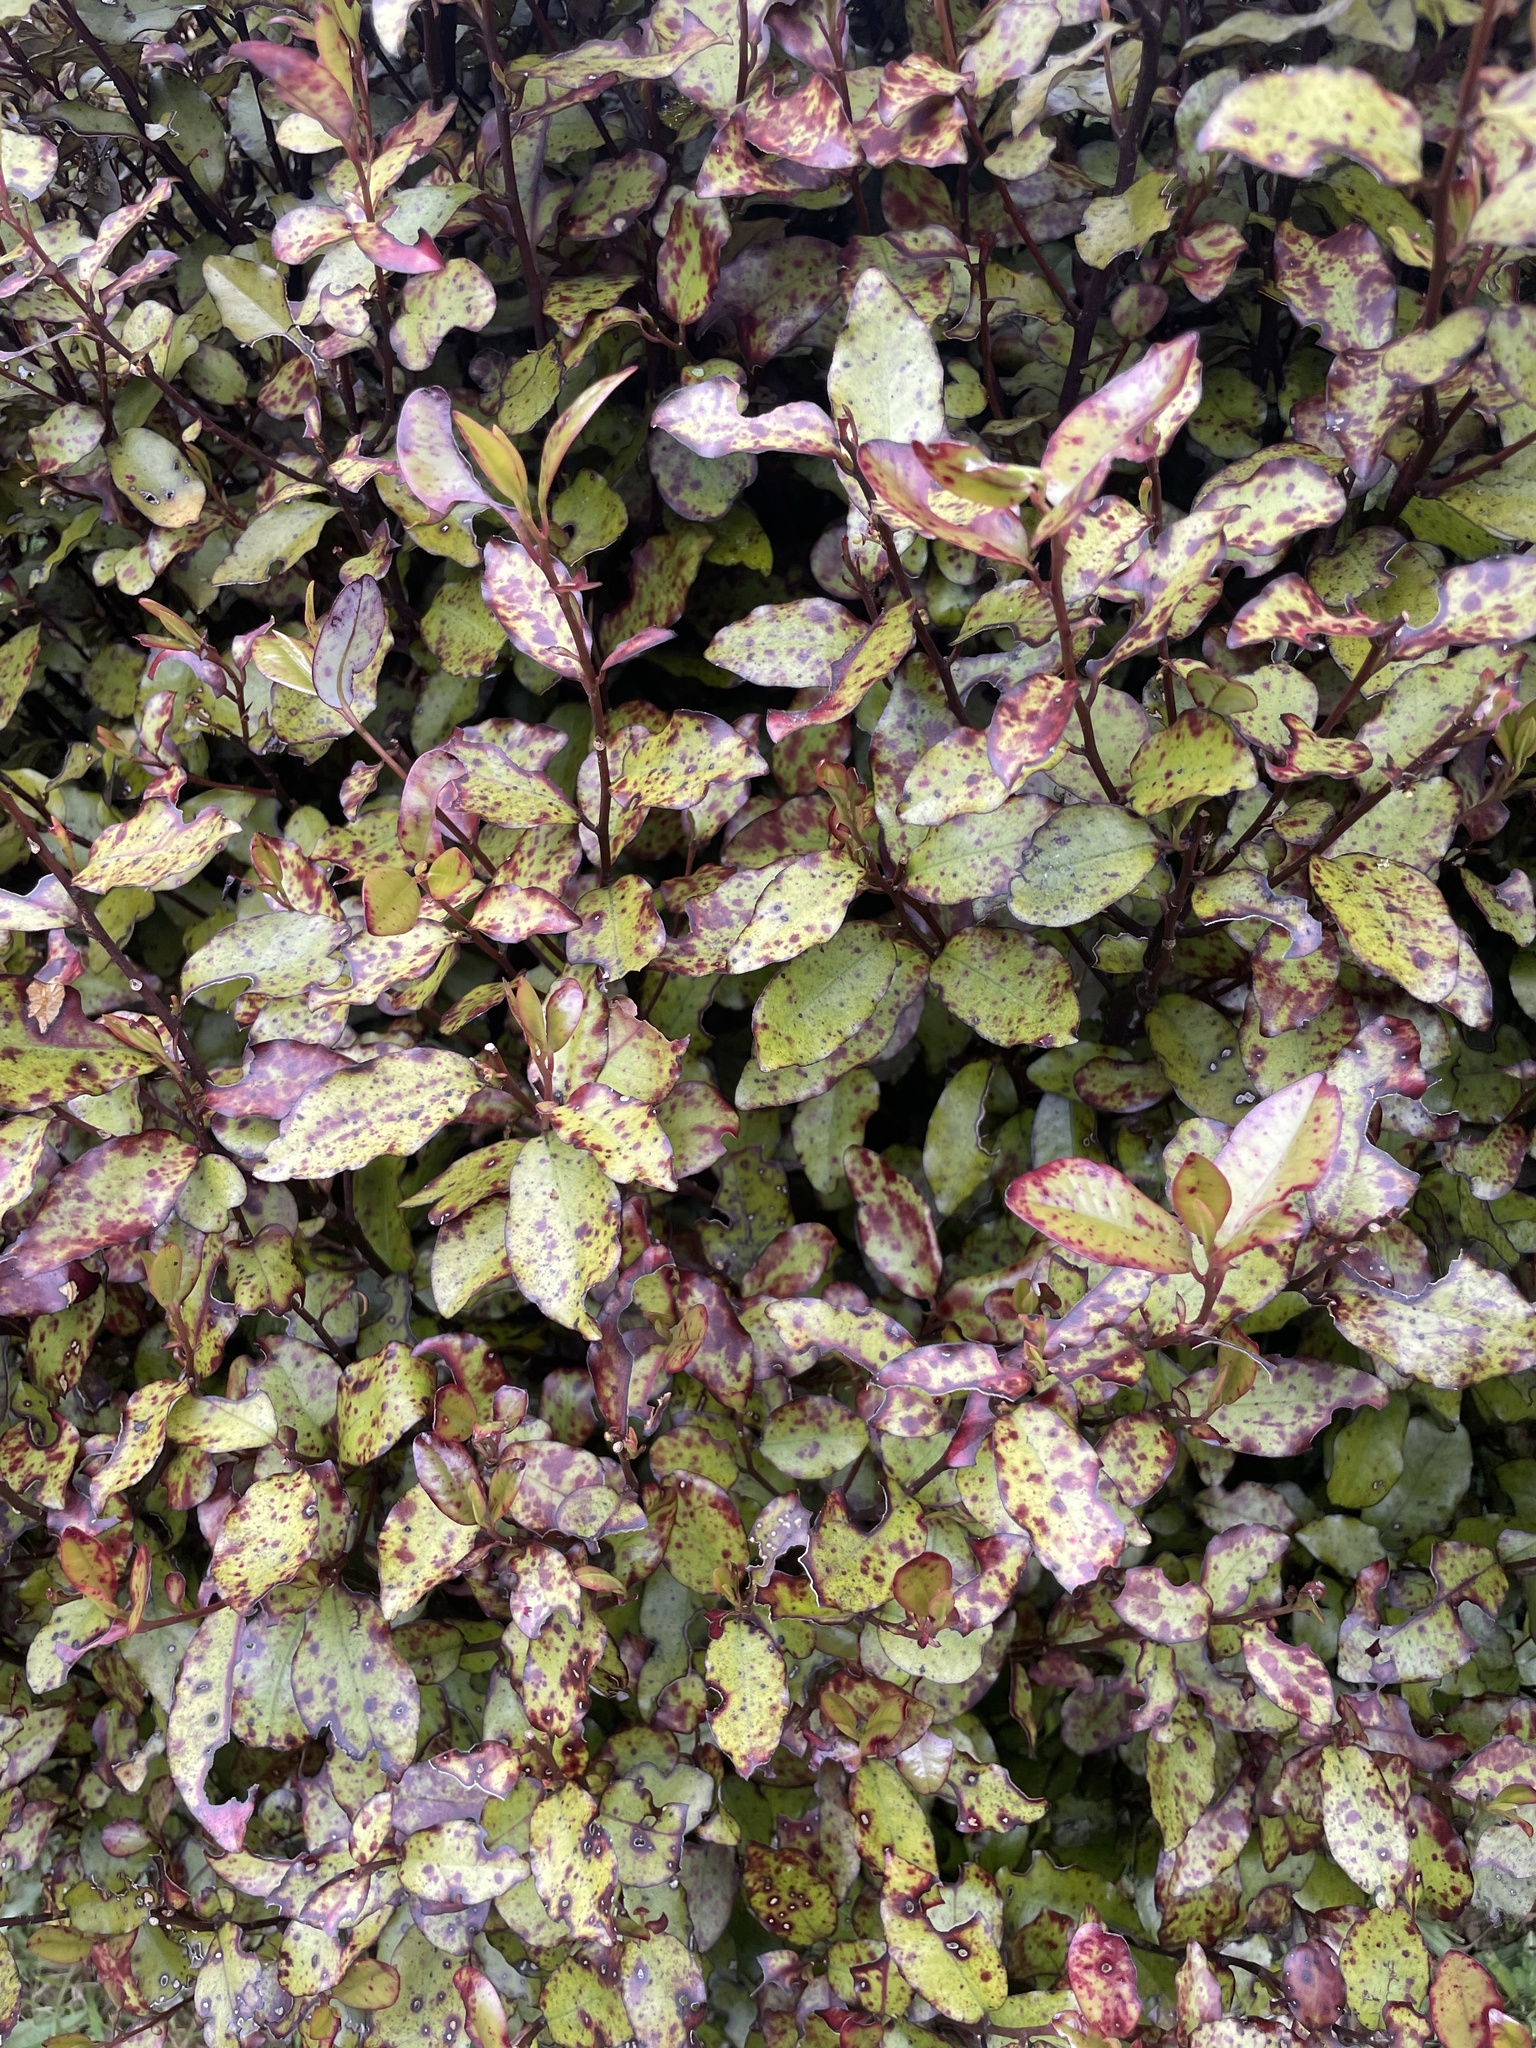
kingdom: Plantae
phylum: Tracheophyta
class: Magnoliopsida
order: Canellales
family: Winteraceae
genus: Pseudowintera
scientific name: Pseudowintera colorata
